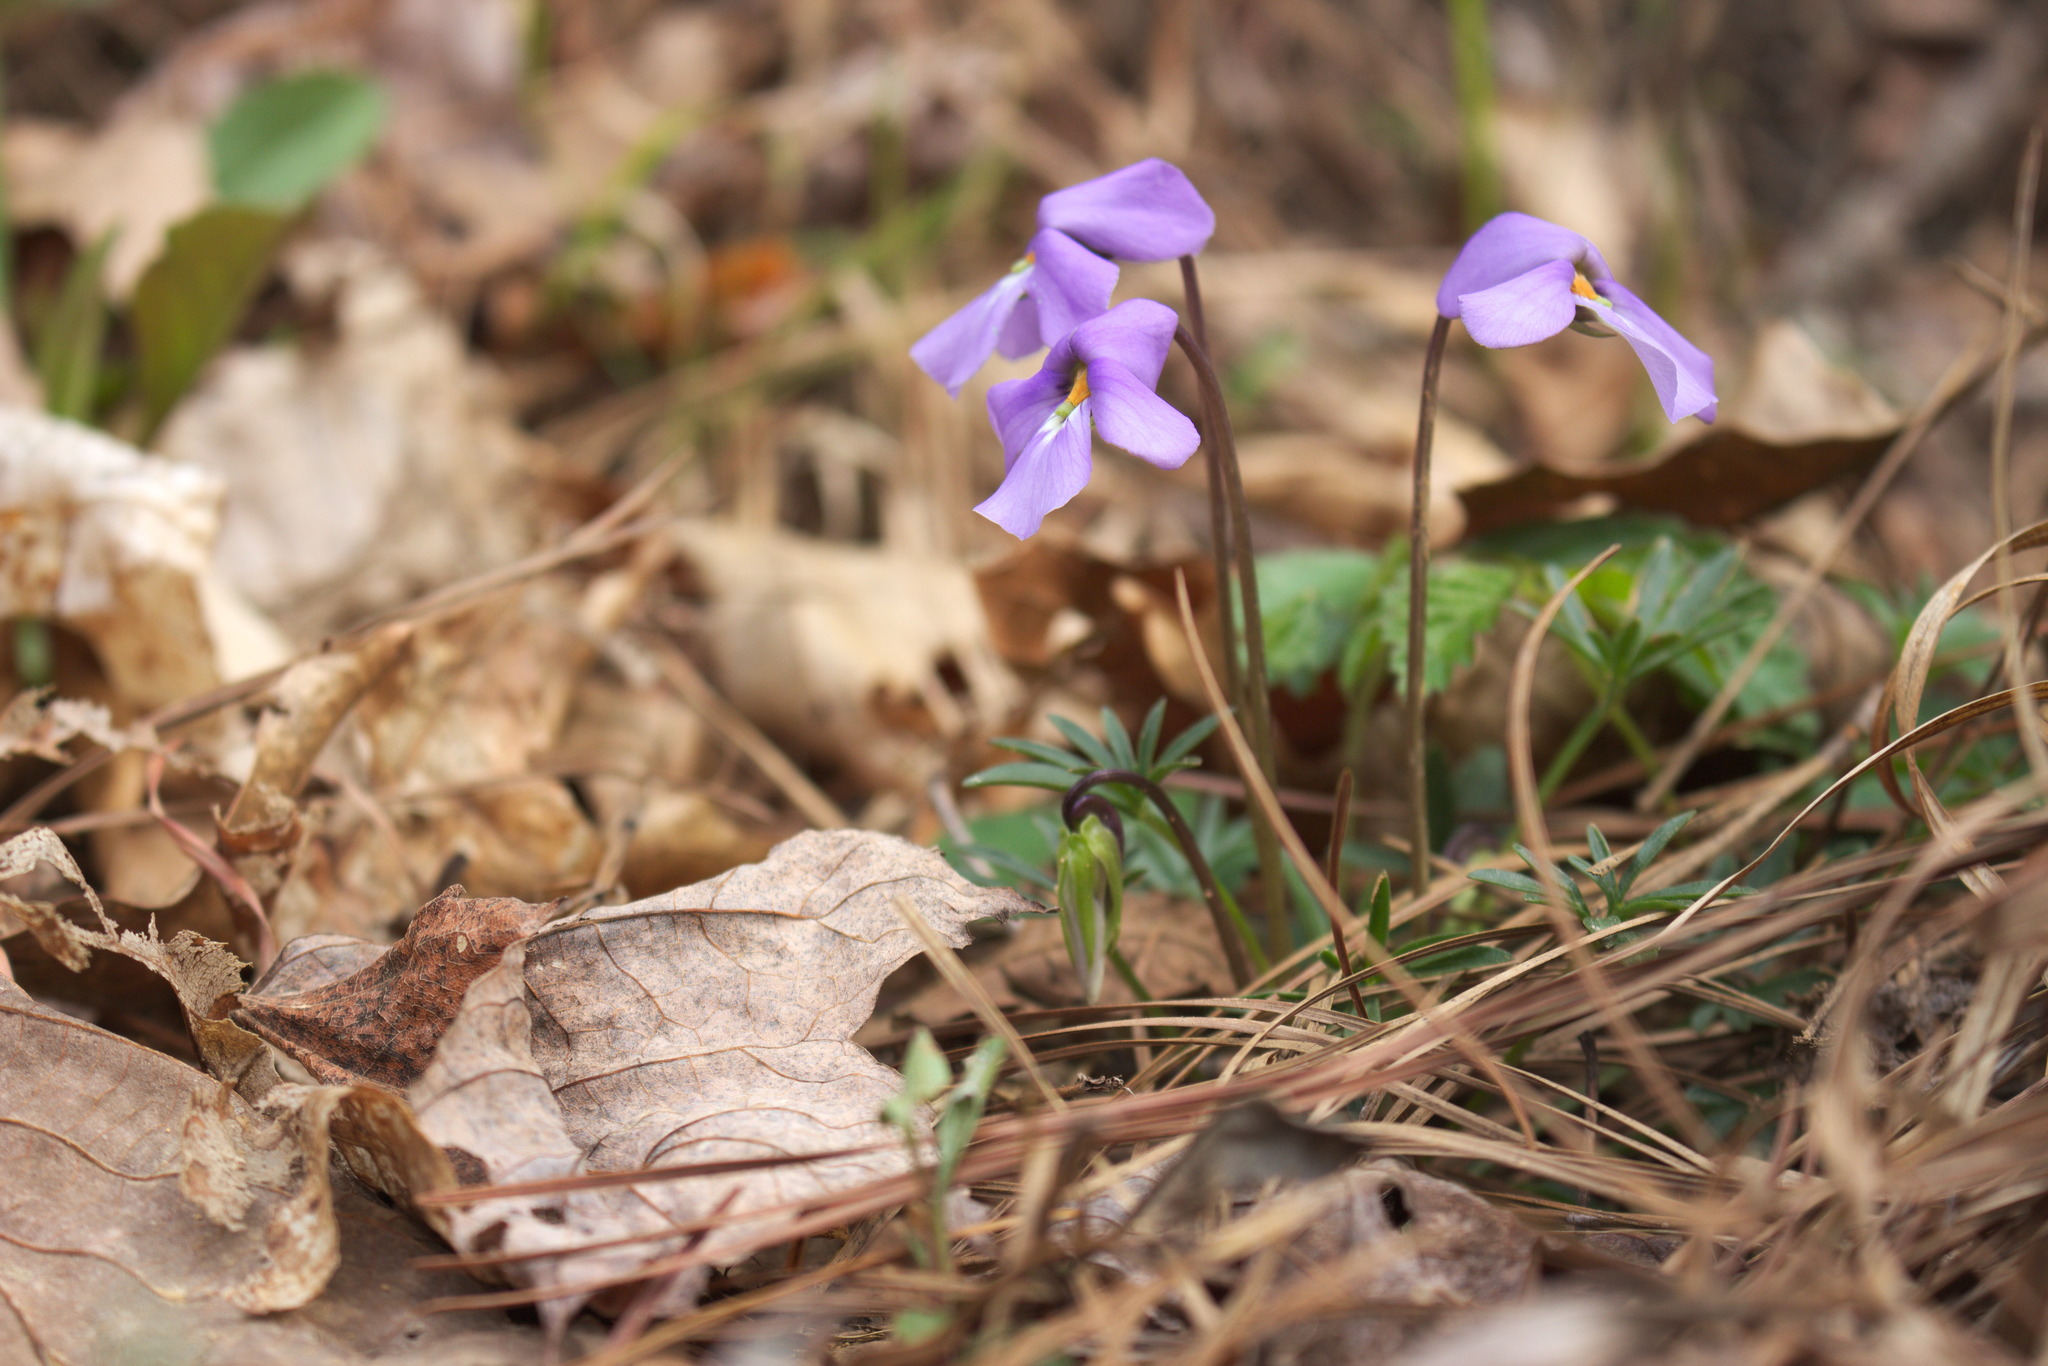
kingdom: Plantae
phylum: Tracheophyta
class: Magnoliopsida
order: Malpighiales
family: Violaceae
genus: Viola
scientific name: Viola pedata
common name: Pansy violet
